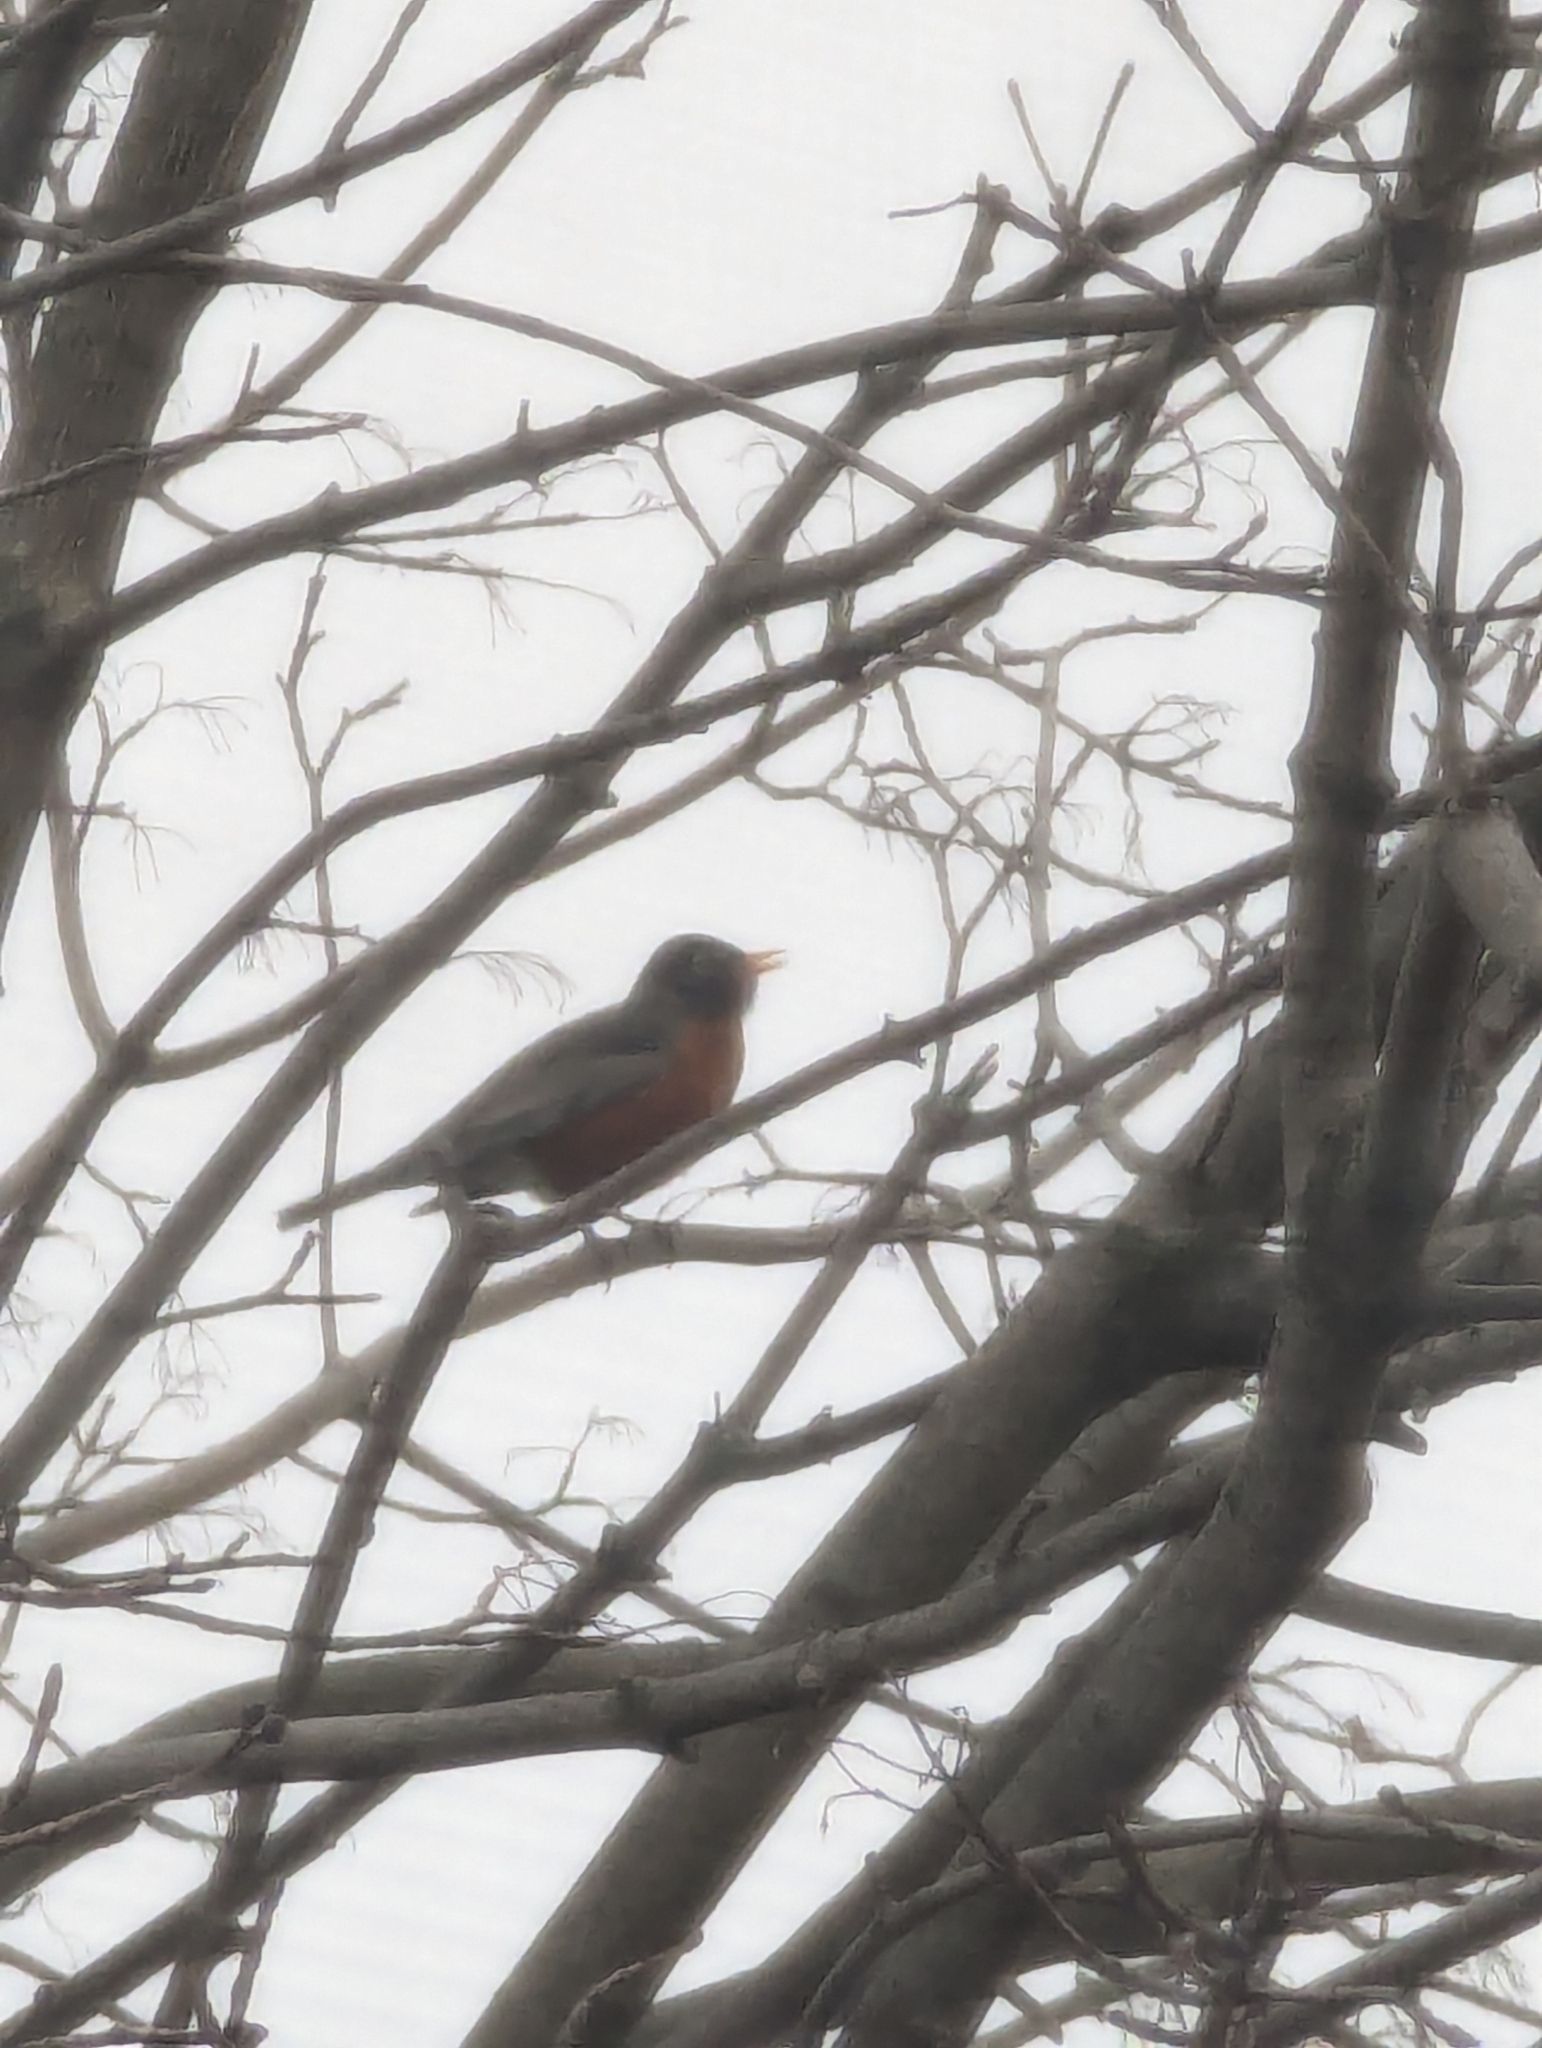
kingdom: Animalia
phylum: Chordata
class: Aves
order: Passeriformes
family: Turdidae
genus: Turdus
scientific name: Turdus migratorius
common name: American robin
